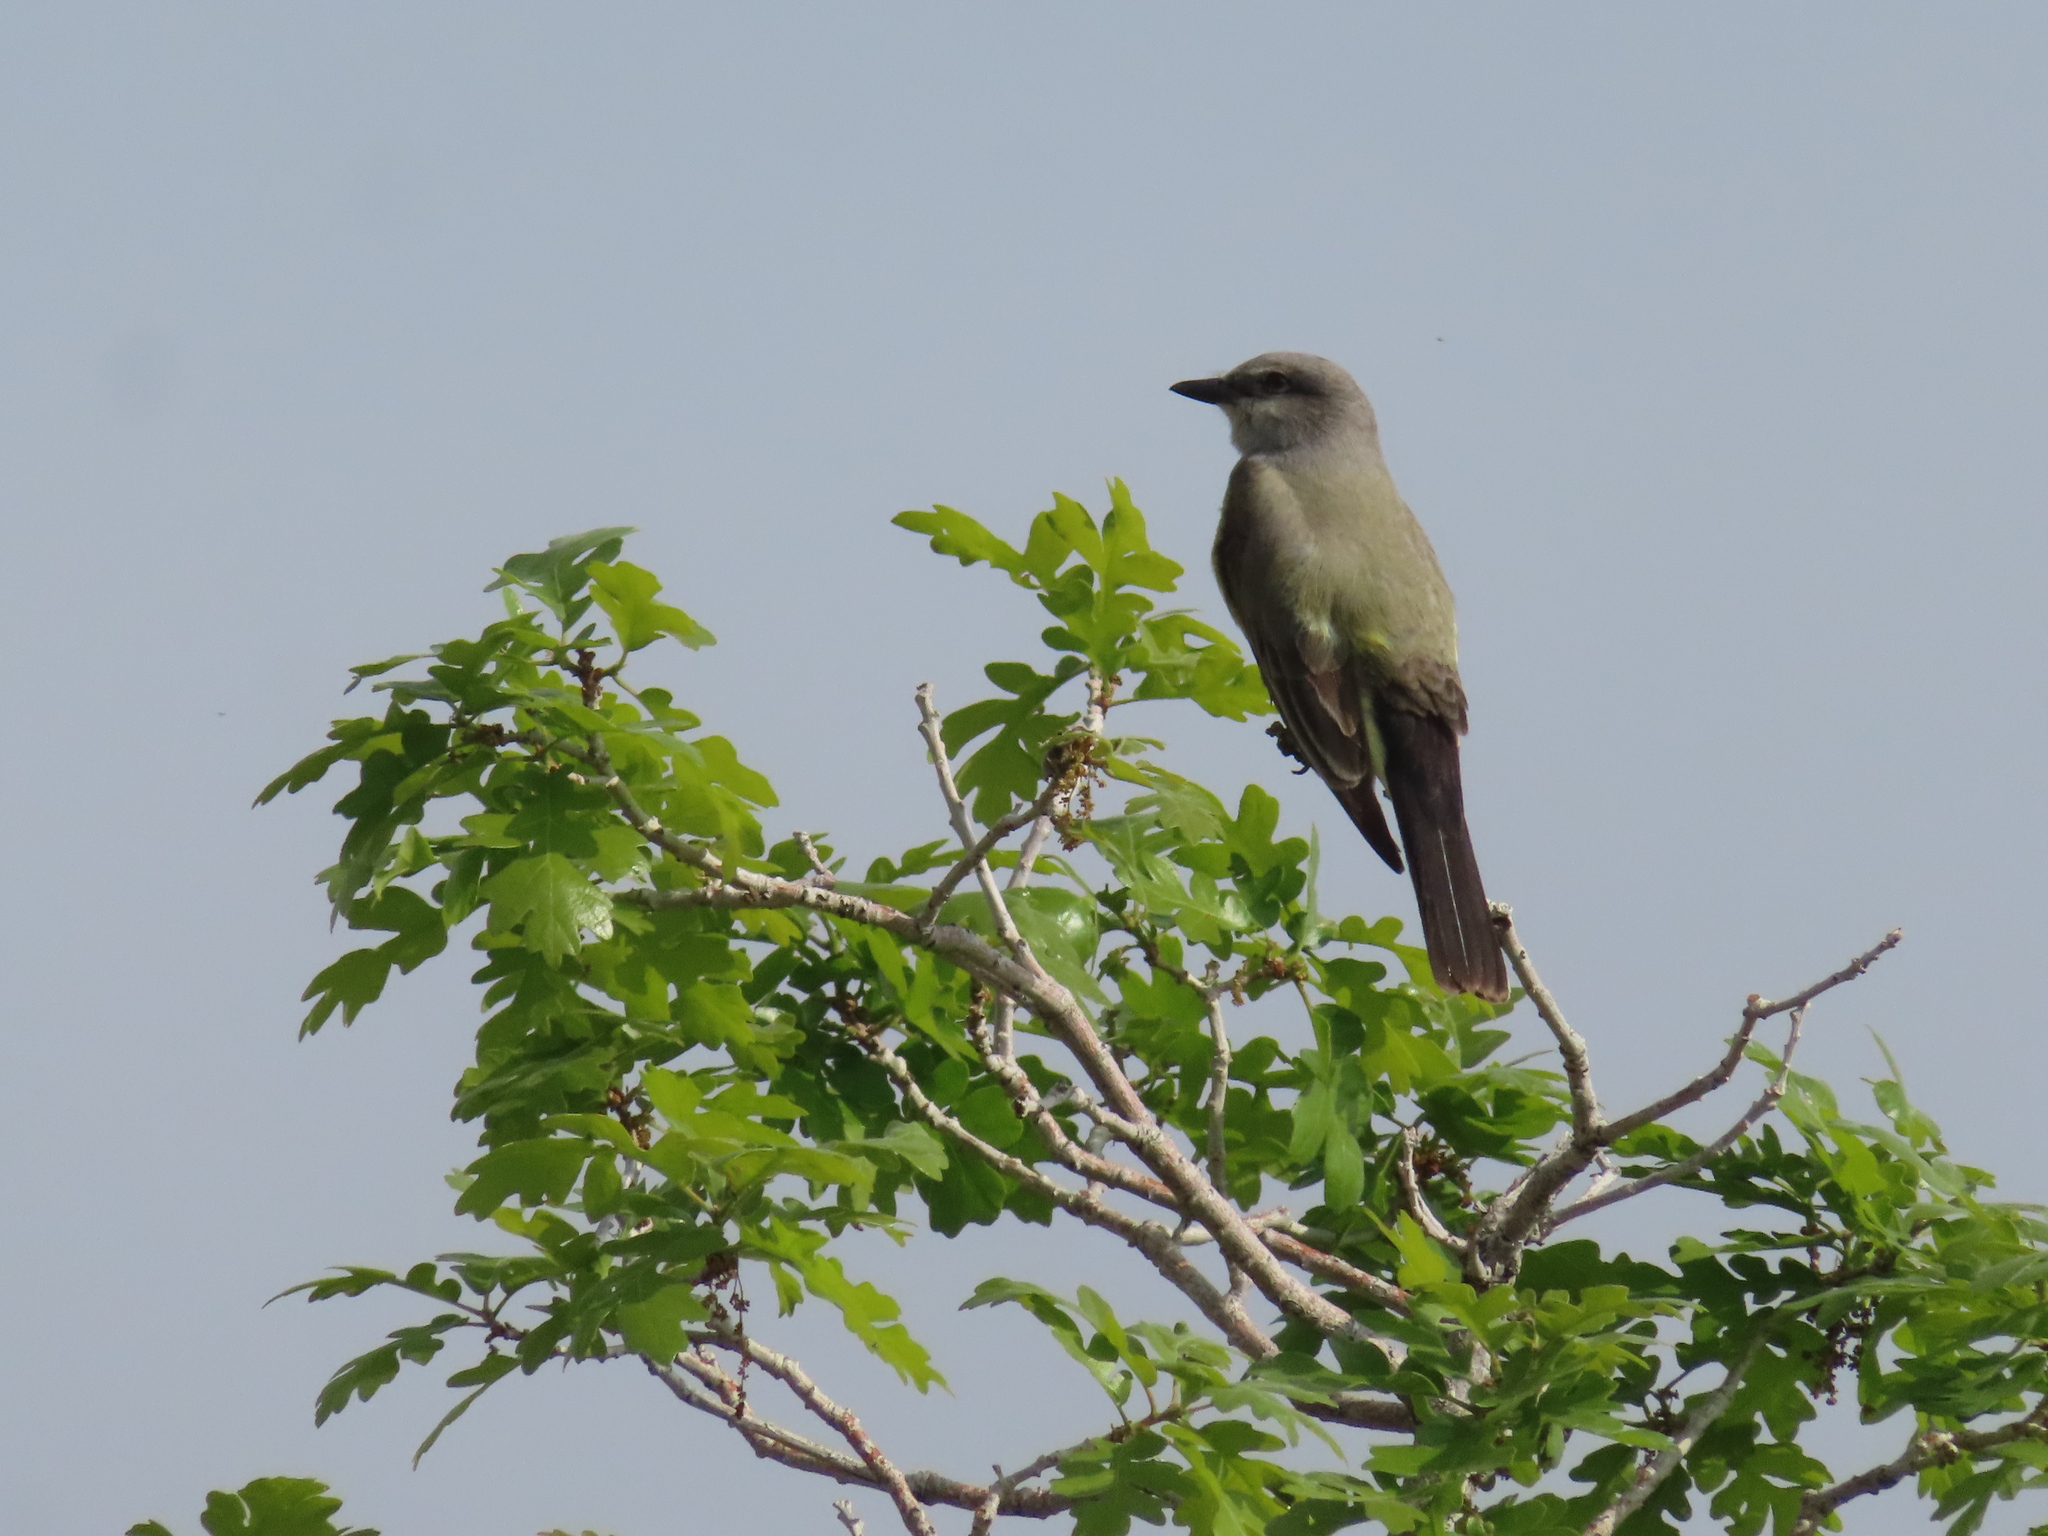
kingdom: Animalia
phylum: Chordata
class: Aves
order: Passeriformes
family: Tyrannidae
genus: Tyrannus
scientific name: Tyrannus verticalis
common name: Western kingbird
